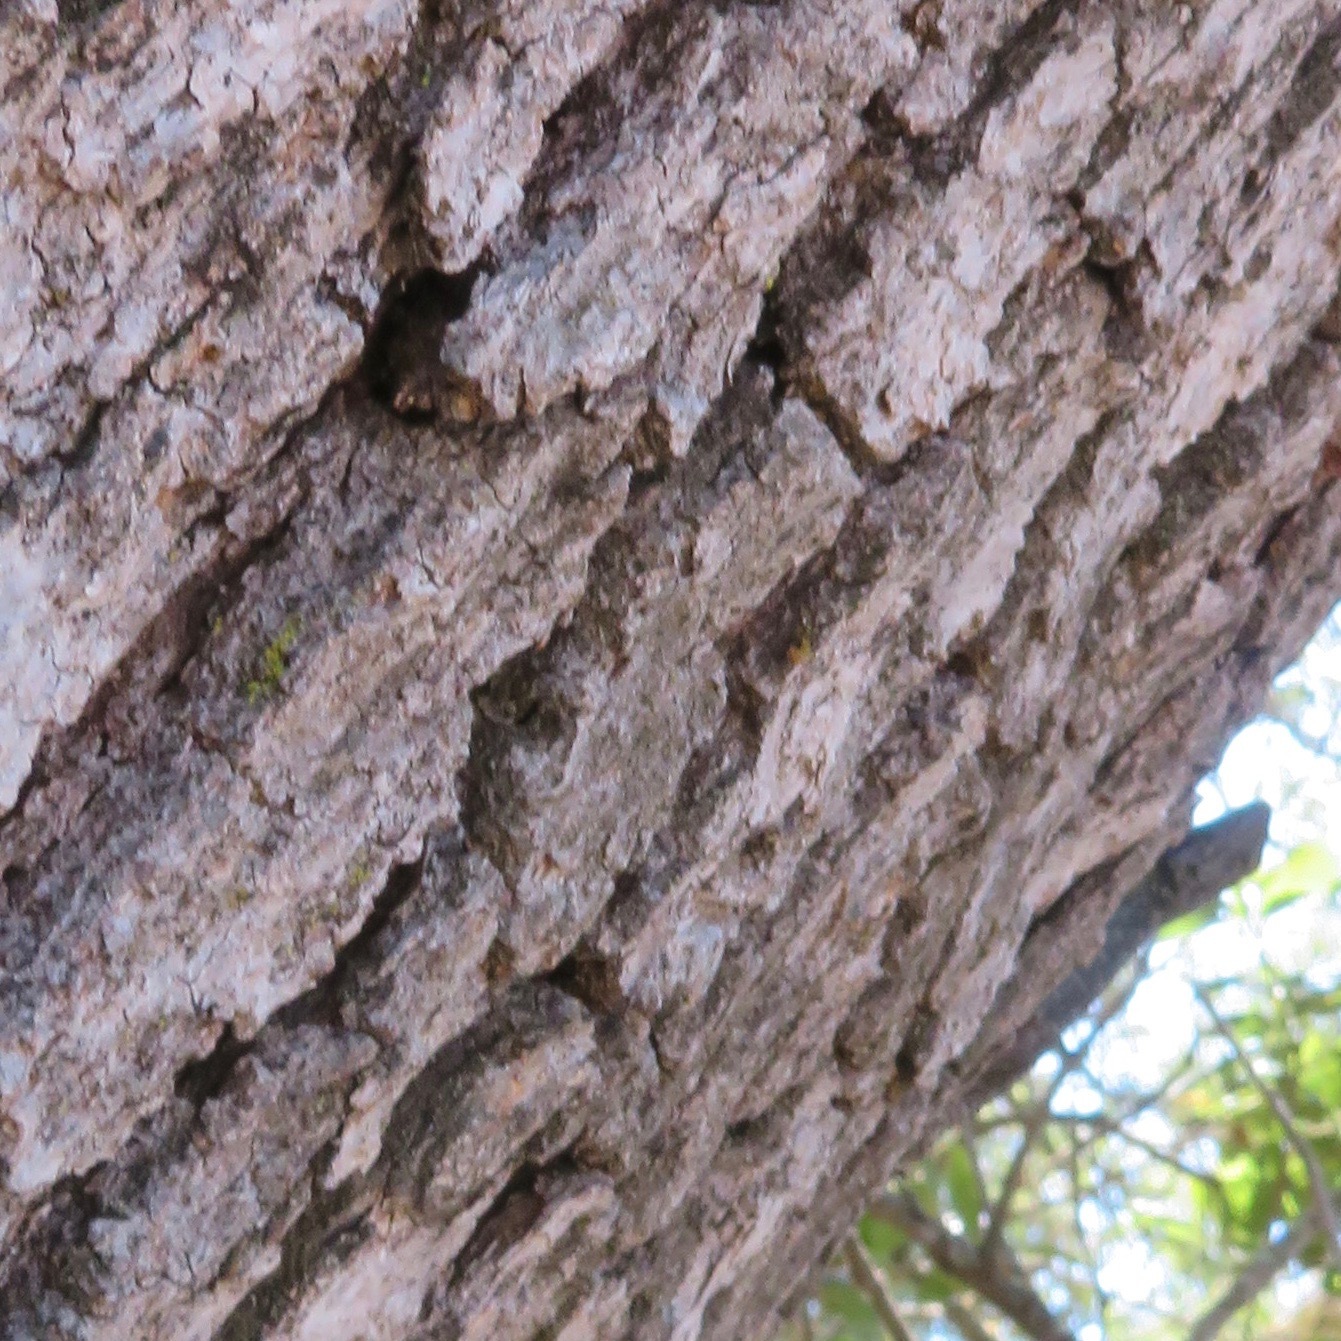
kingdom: Animalia
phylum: Chordata
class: Squamata
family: Phrynosomatidae
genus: Sceloporus
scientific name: Sceloporus occidentalis
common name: Western fence lizard
